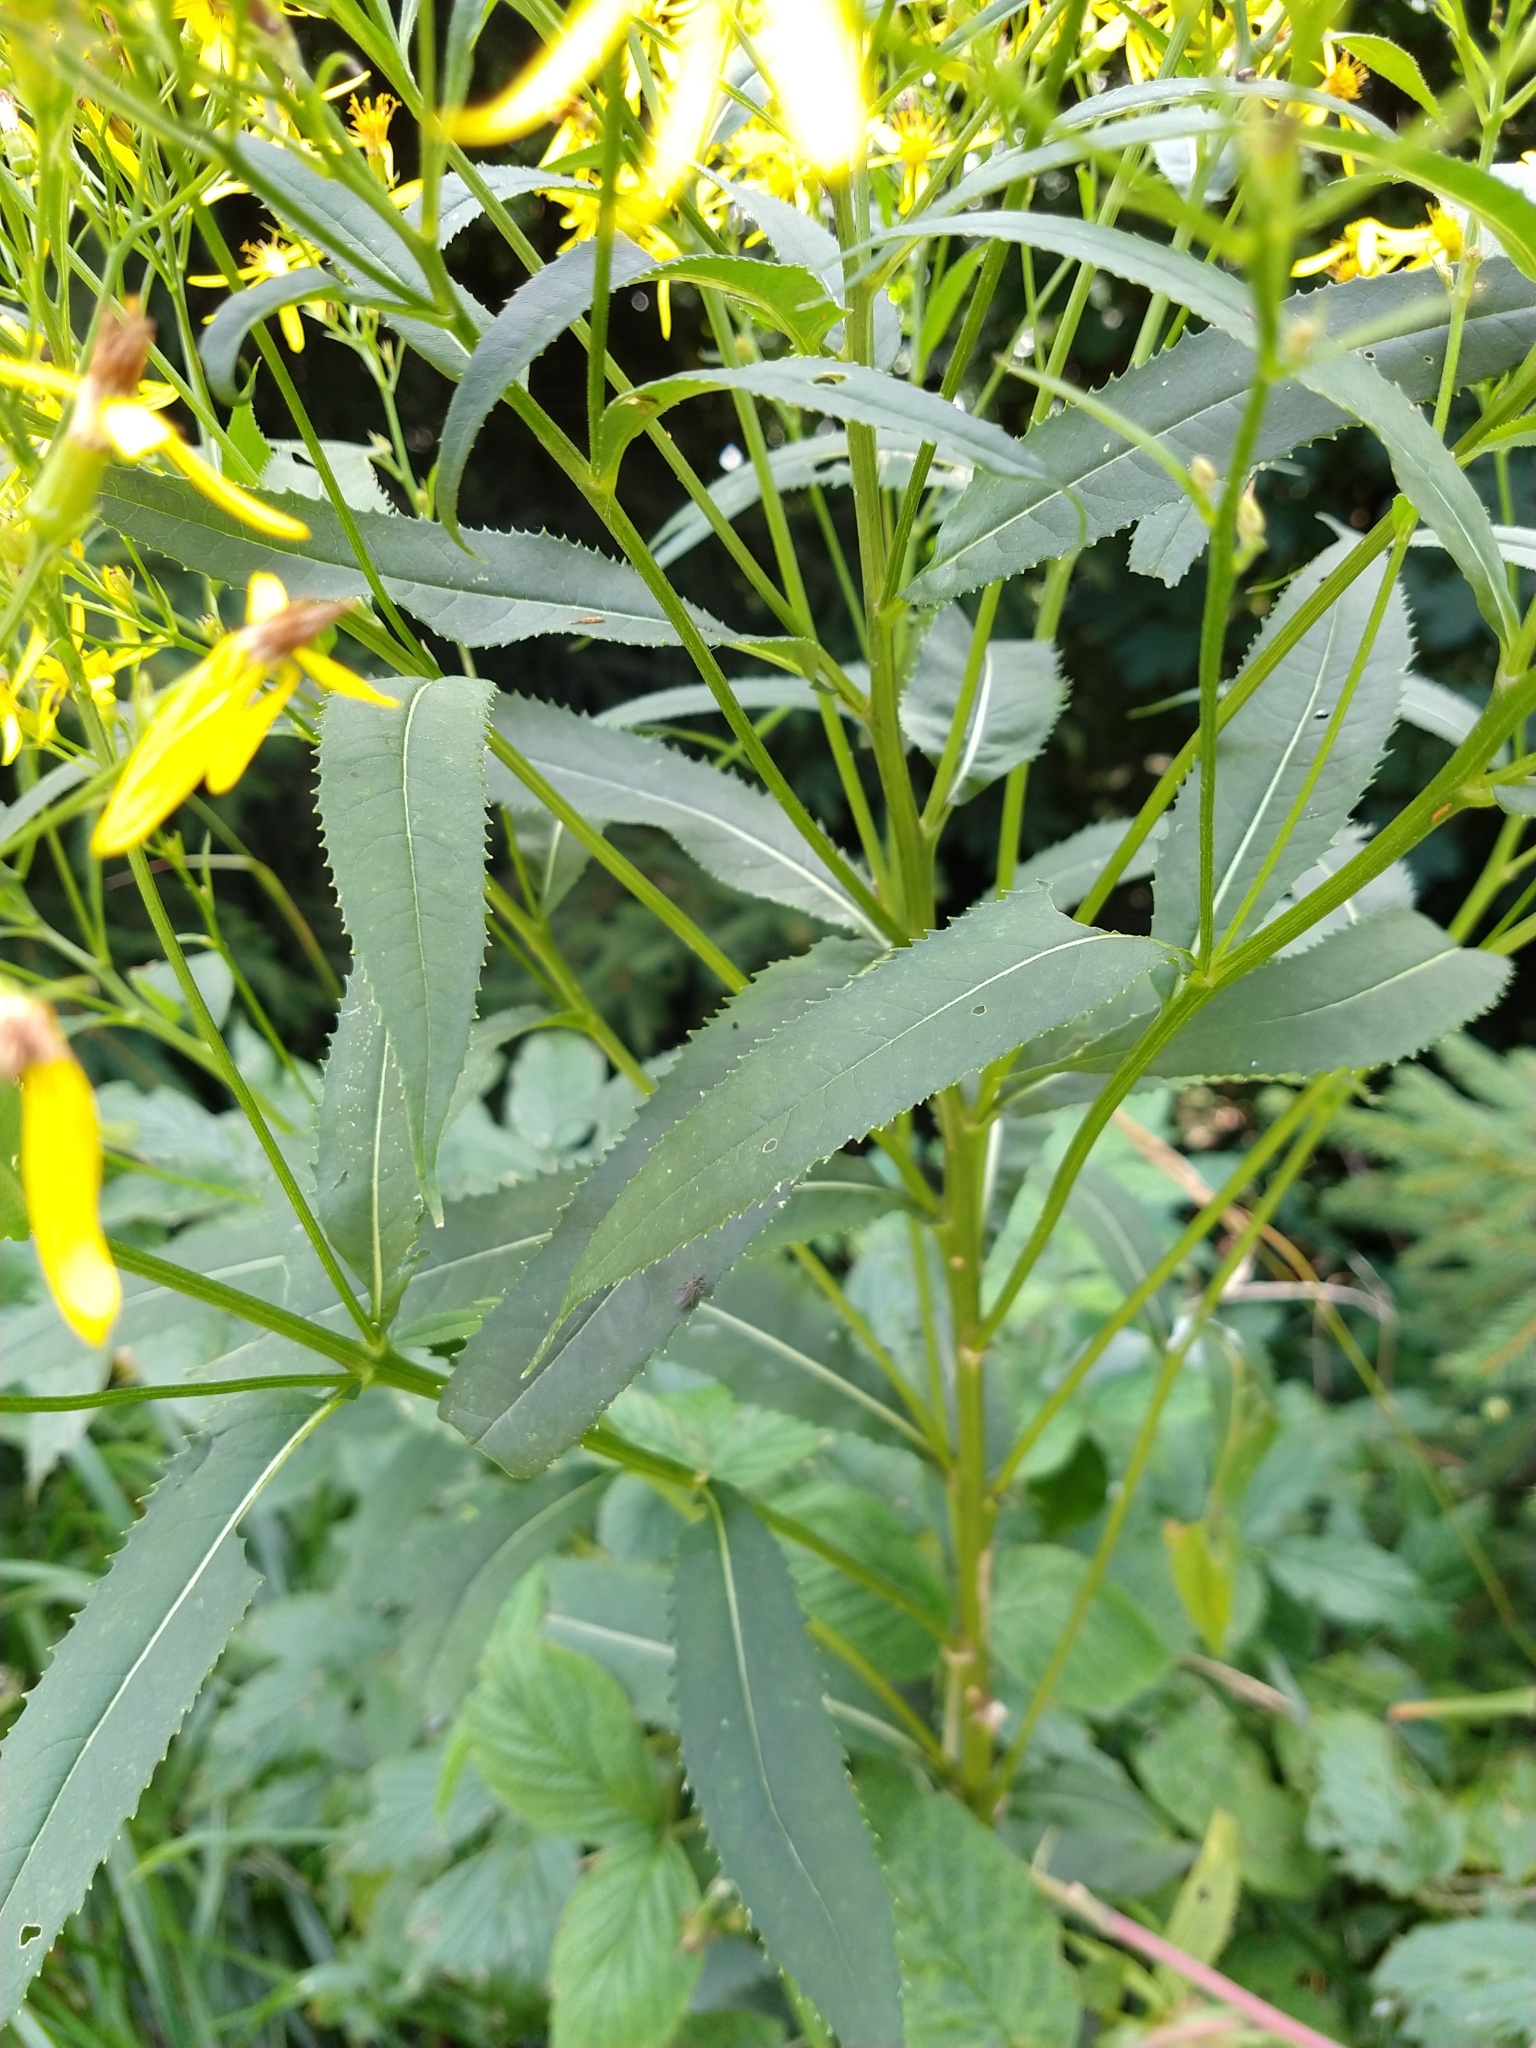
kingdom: Plantae
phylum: Tracheophyta
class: Magnoliopsida
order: Asterales
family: Asteraceae
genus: Senecio
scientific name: Senecio ovatus
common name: Wood ragwort
